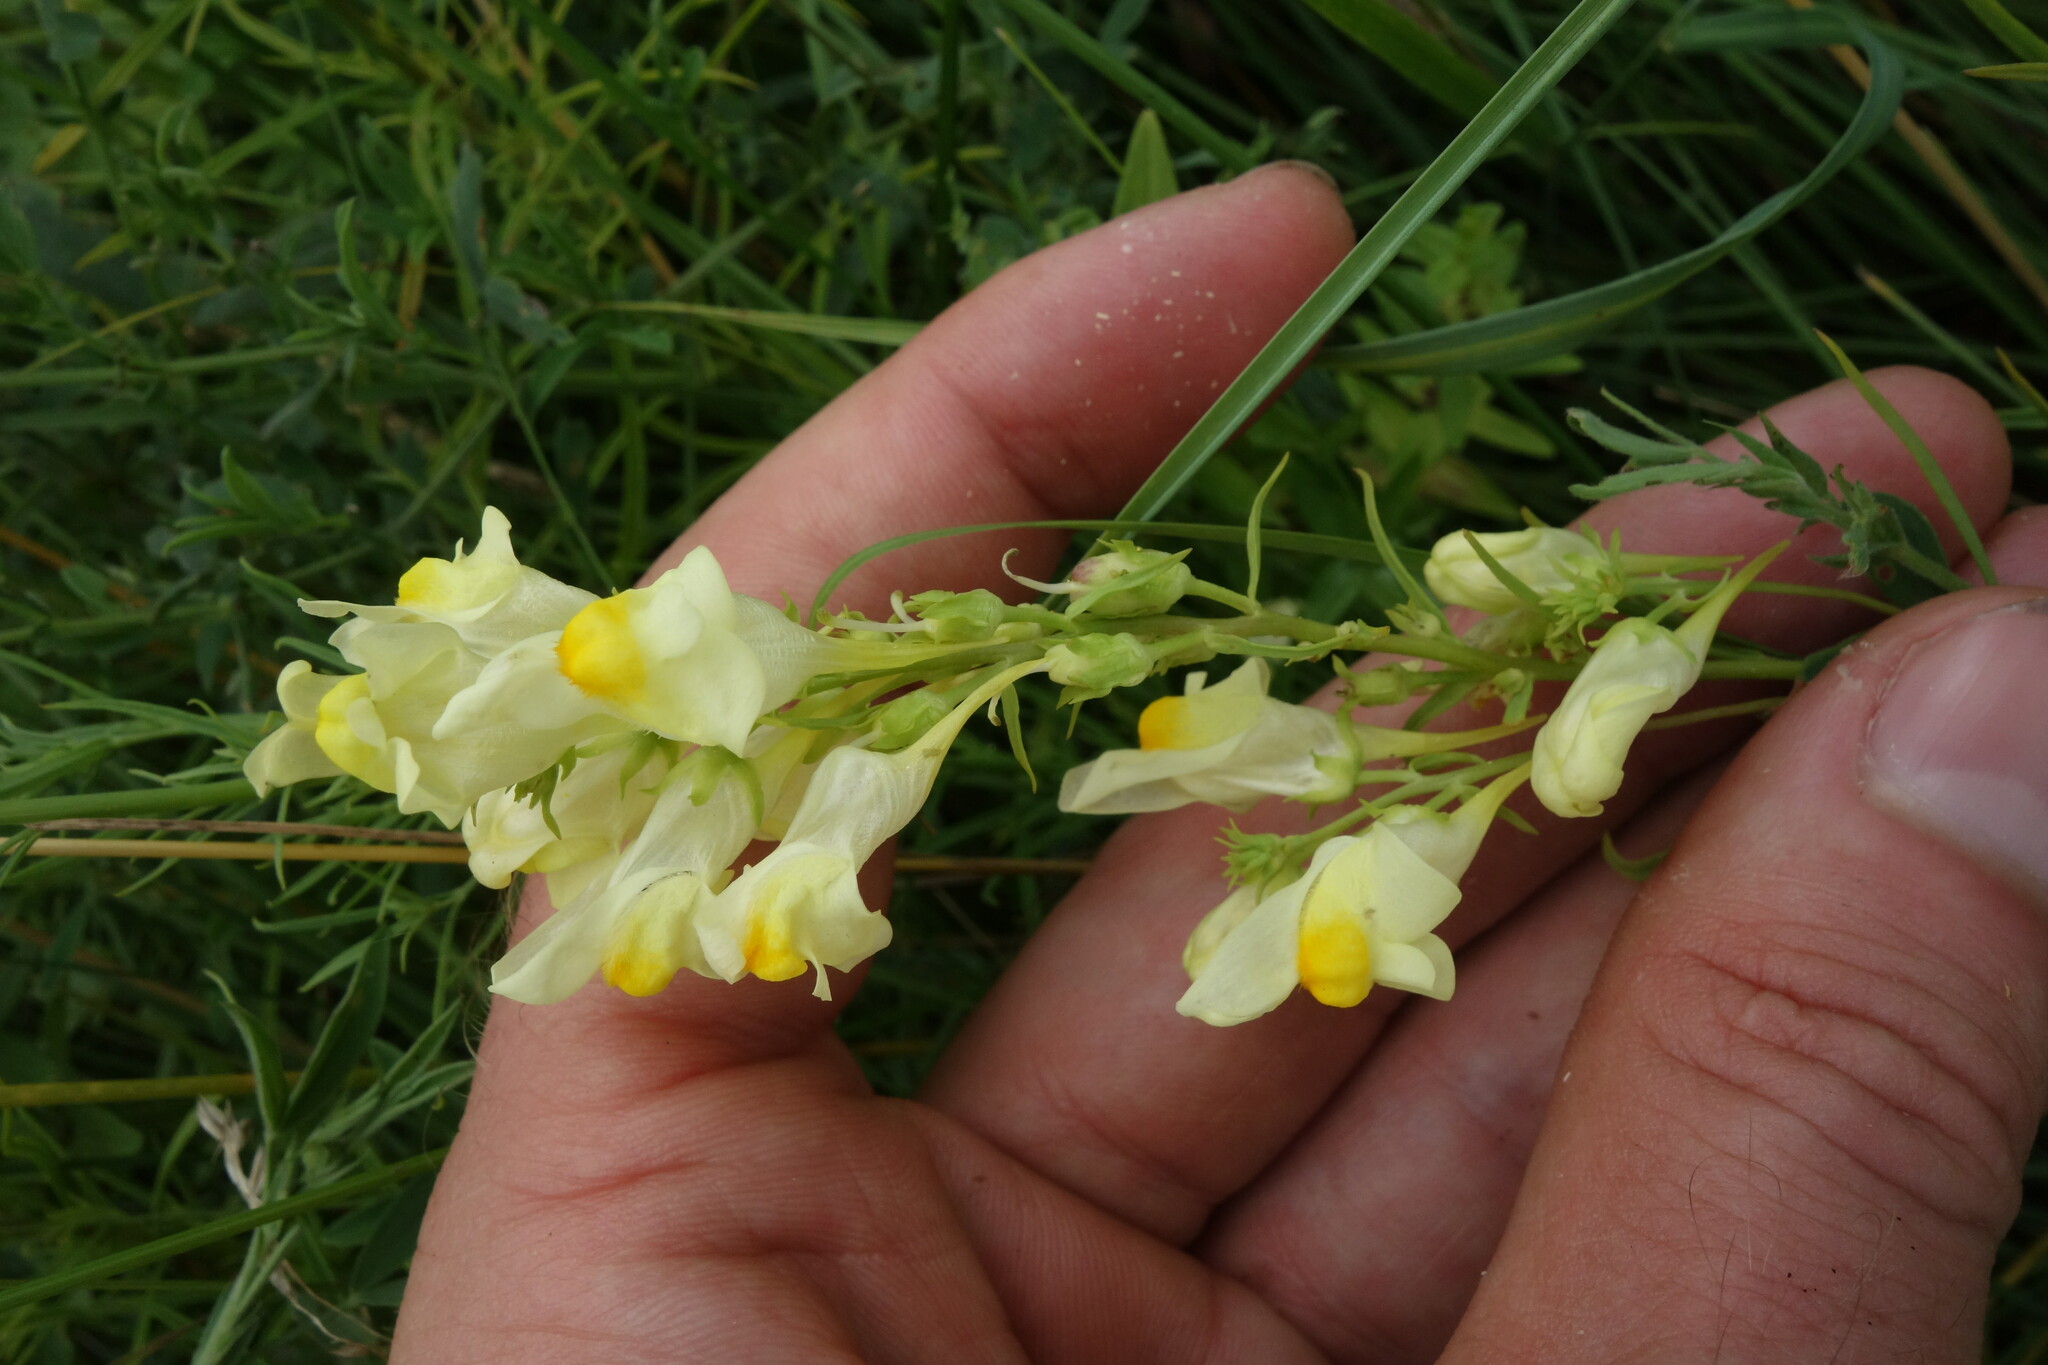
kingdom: Plantae
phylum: Tracheophyta
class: Magnoliopsida
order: Lamiales
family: Plantaginaceae
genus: Linaria
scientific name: Linaria vulgaris
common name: Butter and eggs
